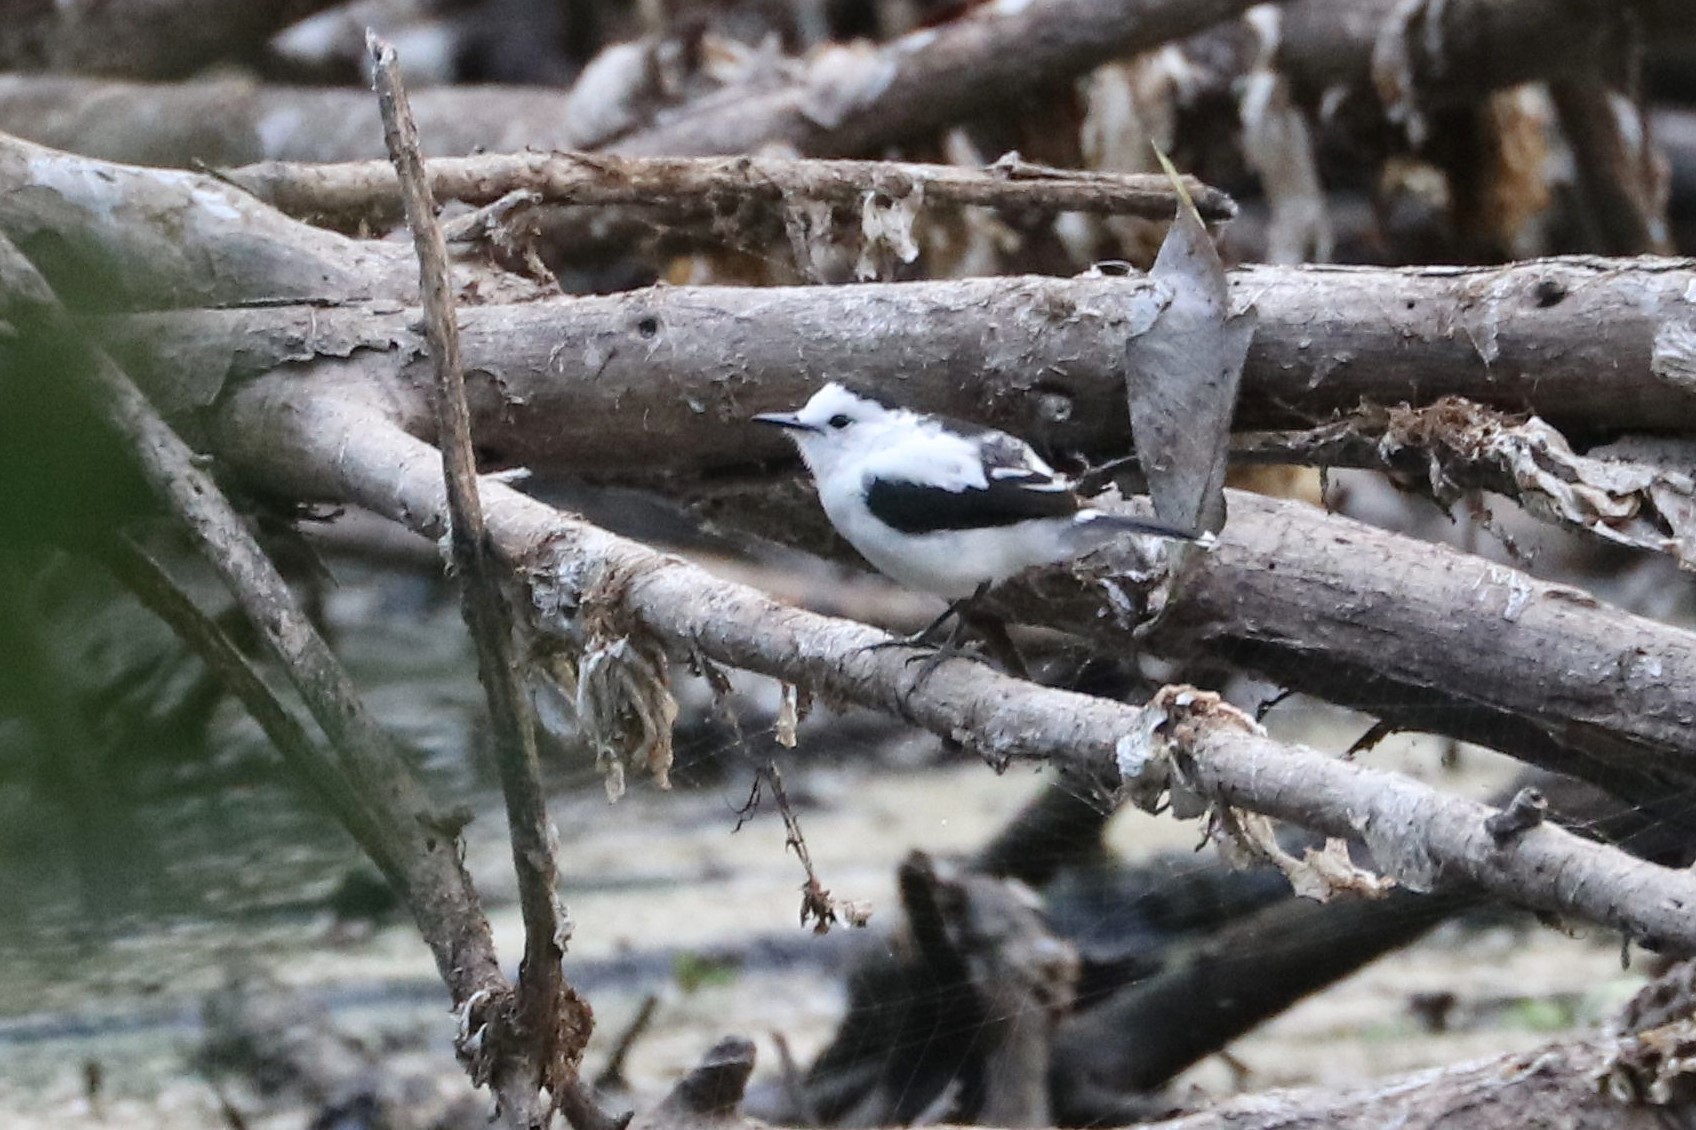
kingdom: Animalia
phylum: Chordata
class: Aves
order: Passeriformes
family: Tyrannidae
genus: Fluvicola
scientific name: Fluvicola pica
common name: Pied water-tyrant
